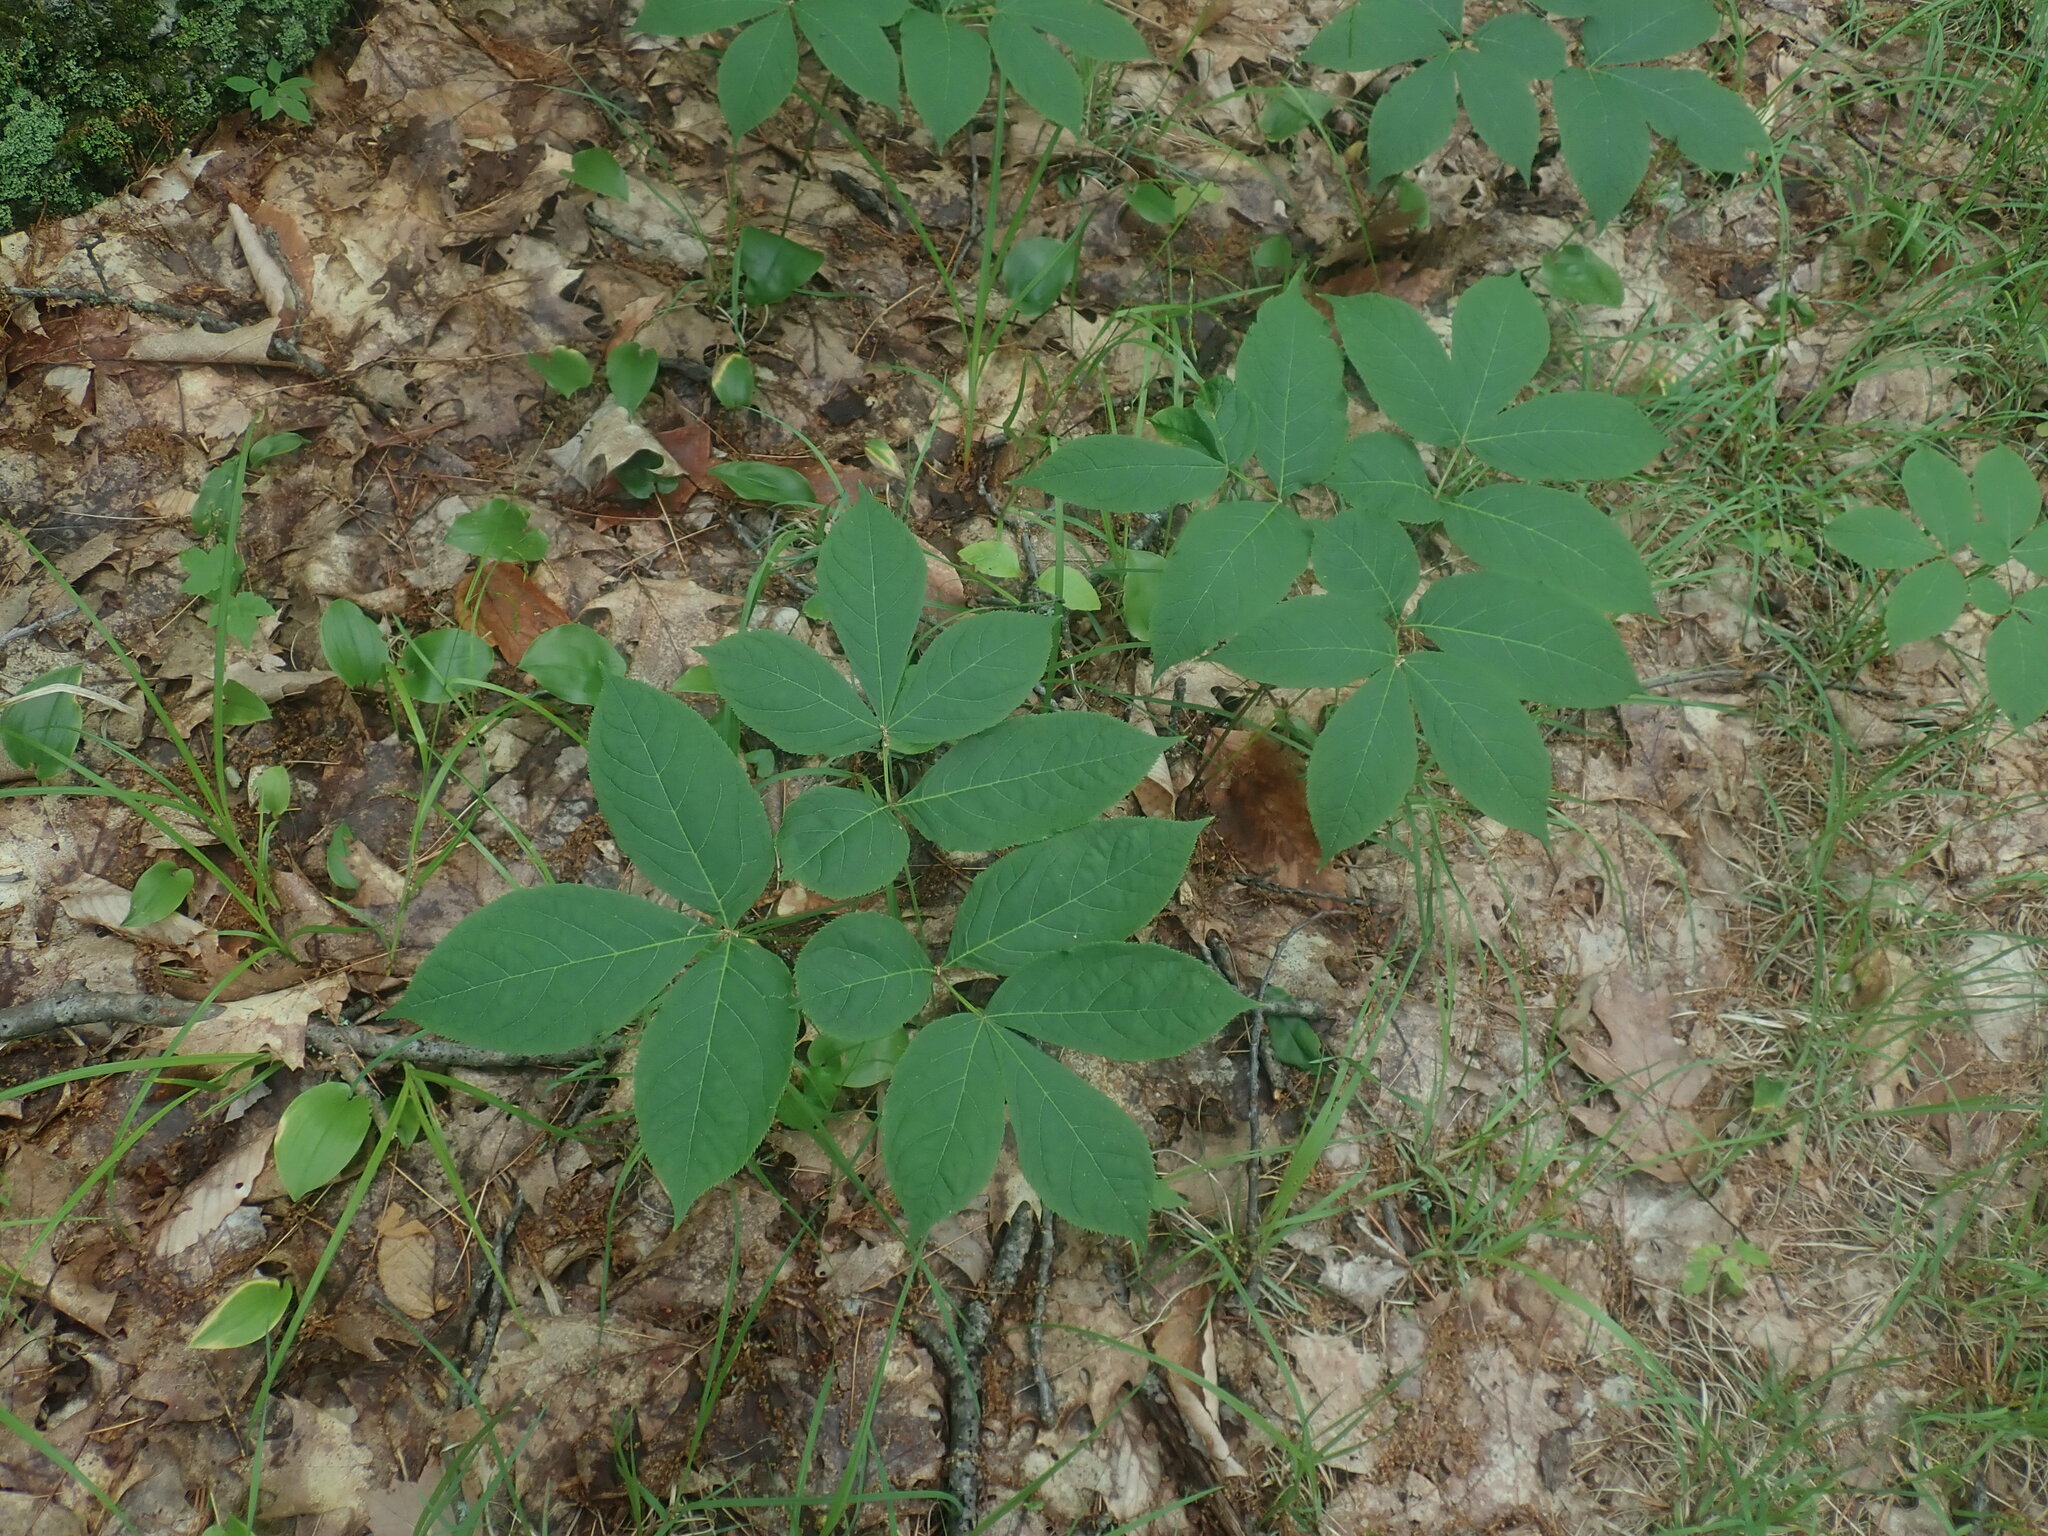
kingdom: Plantae
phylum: Tracheophyta
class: Magnoliopsida
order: Apiales
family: Araliaceae
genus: Aralia
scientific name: Aralia nudicaulis
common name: Wild sarsaparilla
